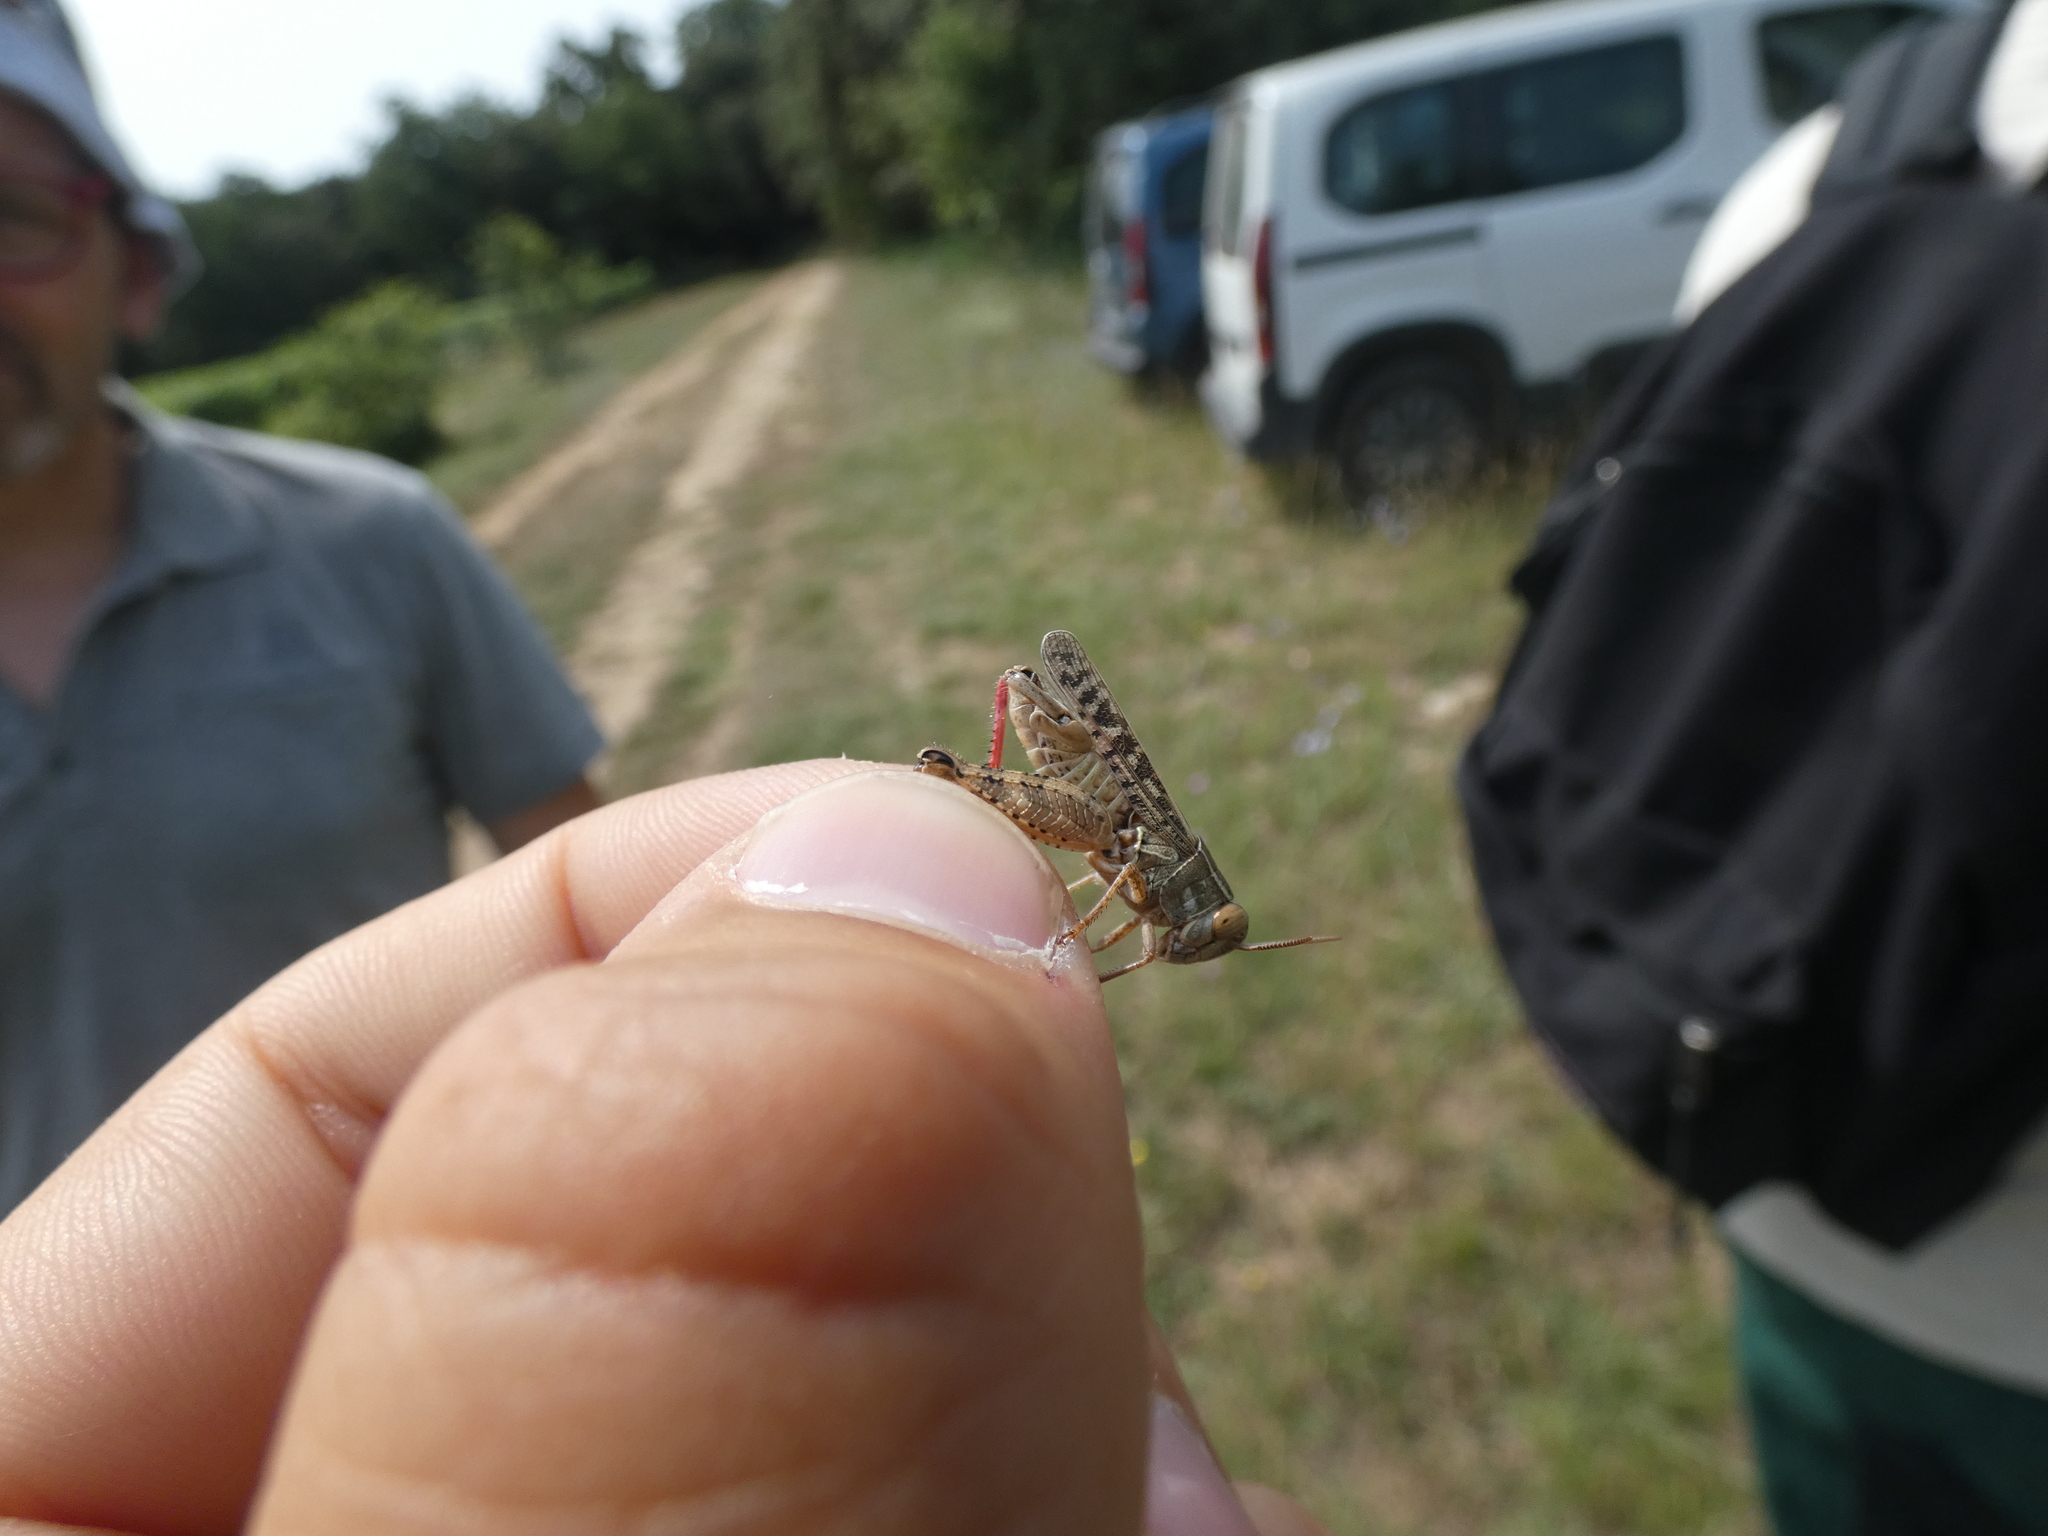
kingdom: Animalia
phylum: Arthropoda
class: Insecta
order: Orthoptera
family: Acrididae
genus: Calliptamus
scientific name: Calliptamus italicus
